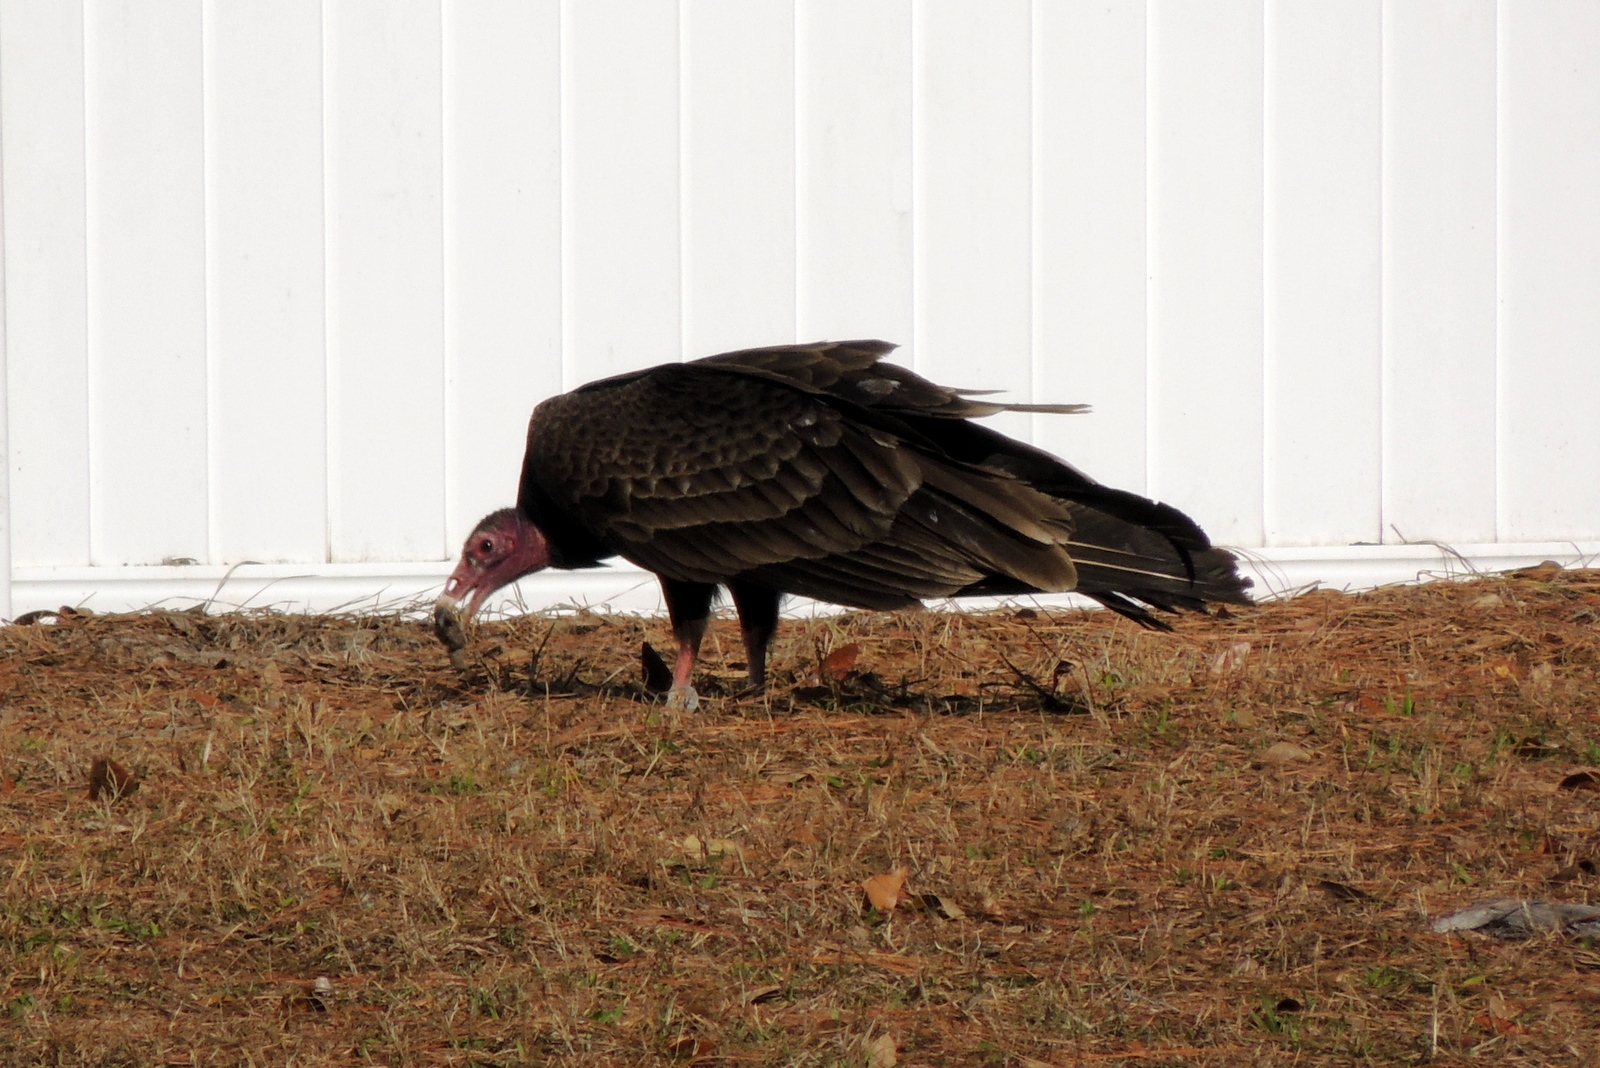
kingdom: Animalia
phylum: Chordata
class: Aves
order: Accipitriformes
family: Cathartidae
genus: Cathartes
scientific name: Cathartes aura
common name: Turkey vulture
